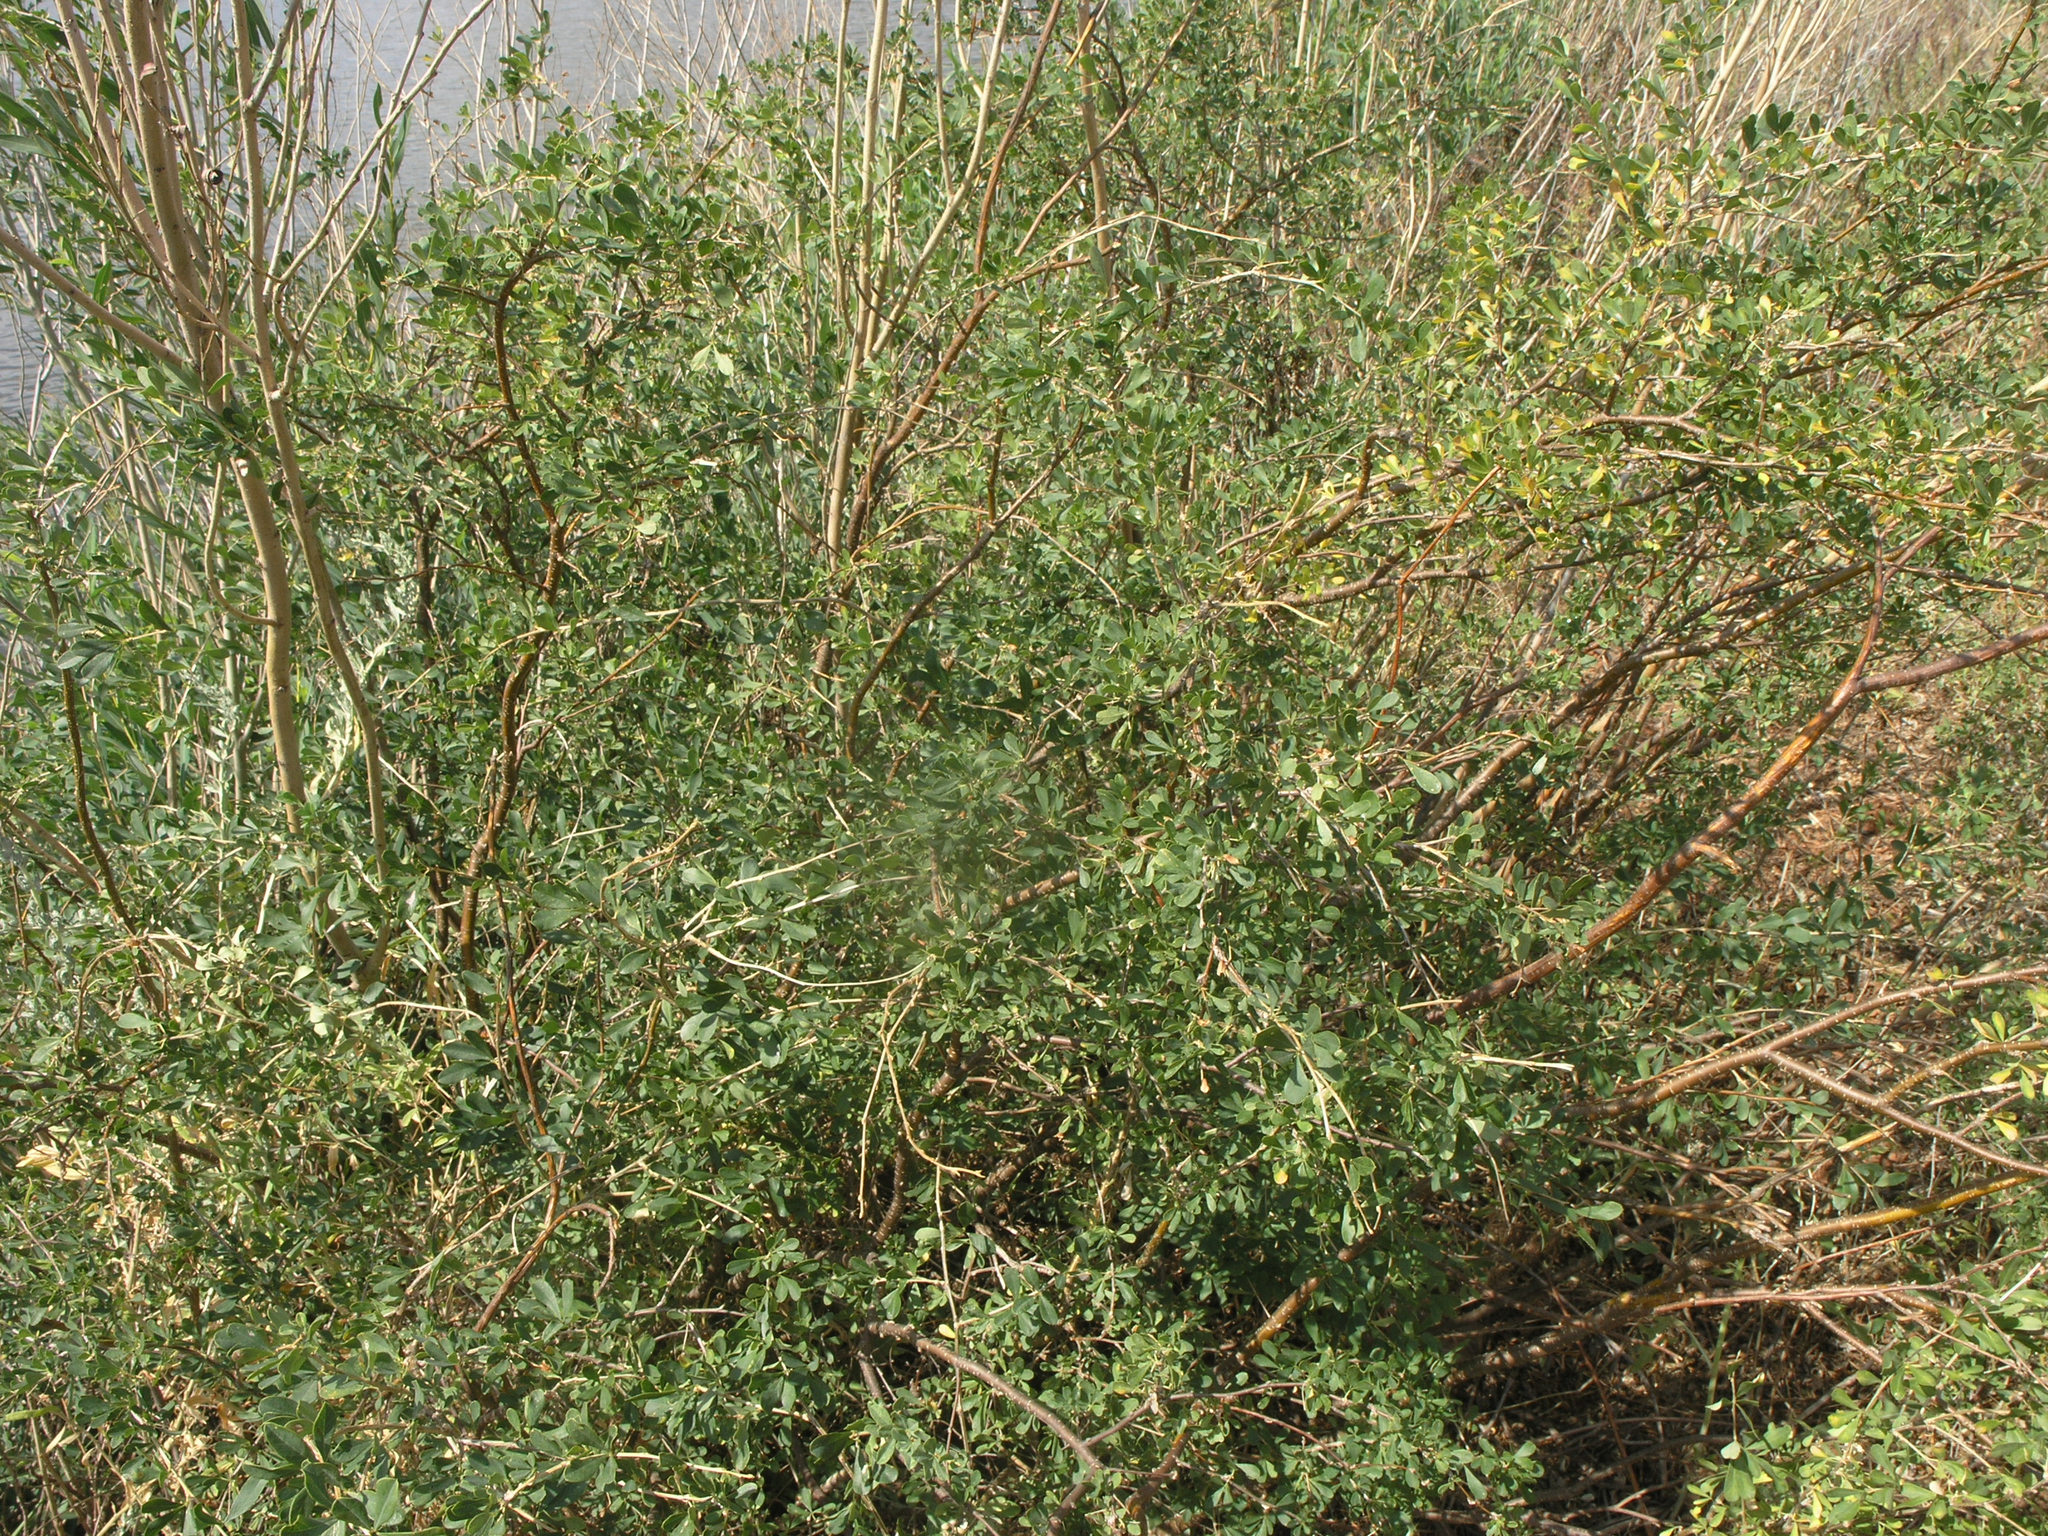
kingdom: Plantae
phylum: Tracheophyta
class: Magnoliopsida
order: Fabales
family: Fabaceae
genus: Caragana
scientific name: Caragana frutex
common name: Russian peashrub
